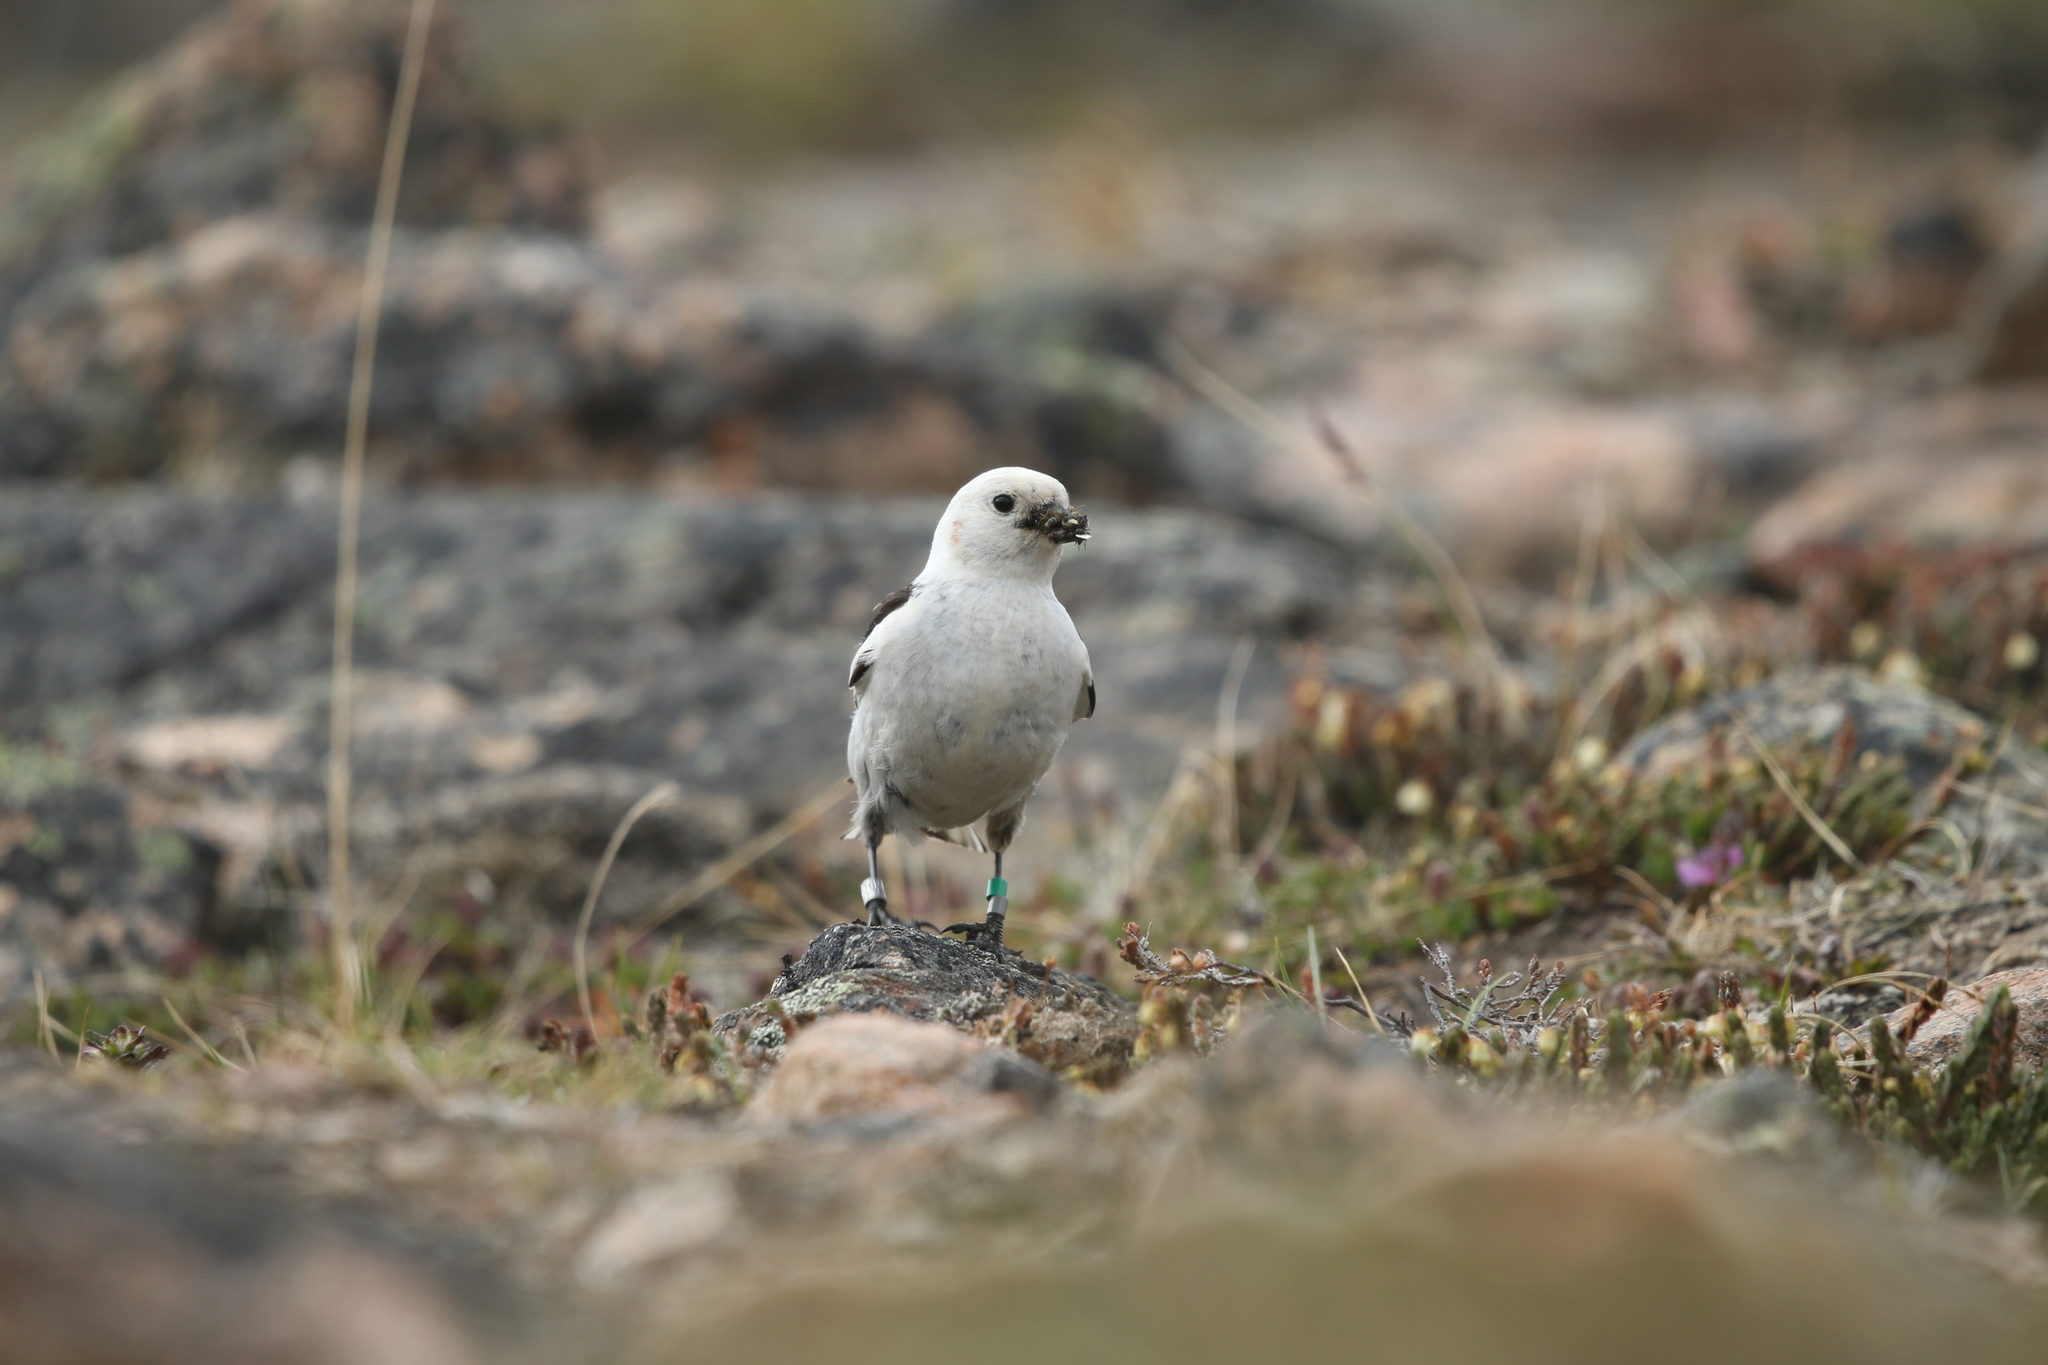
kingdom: Animalia
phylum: Chordata
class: Aves
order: Passeriformes
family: Calcariidae
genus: Plectrophenax
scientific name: Plectrophenax nivalis
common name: Snow bunting
